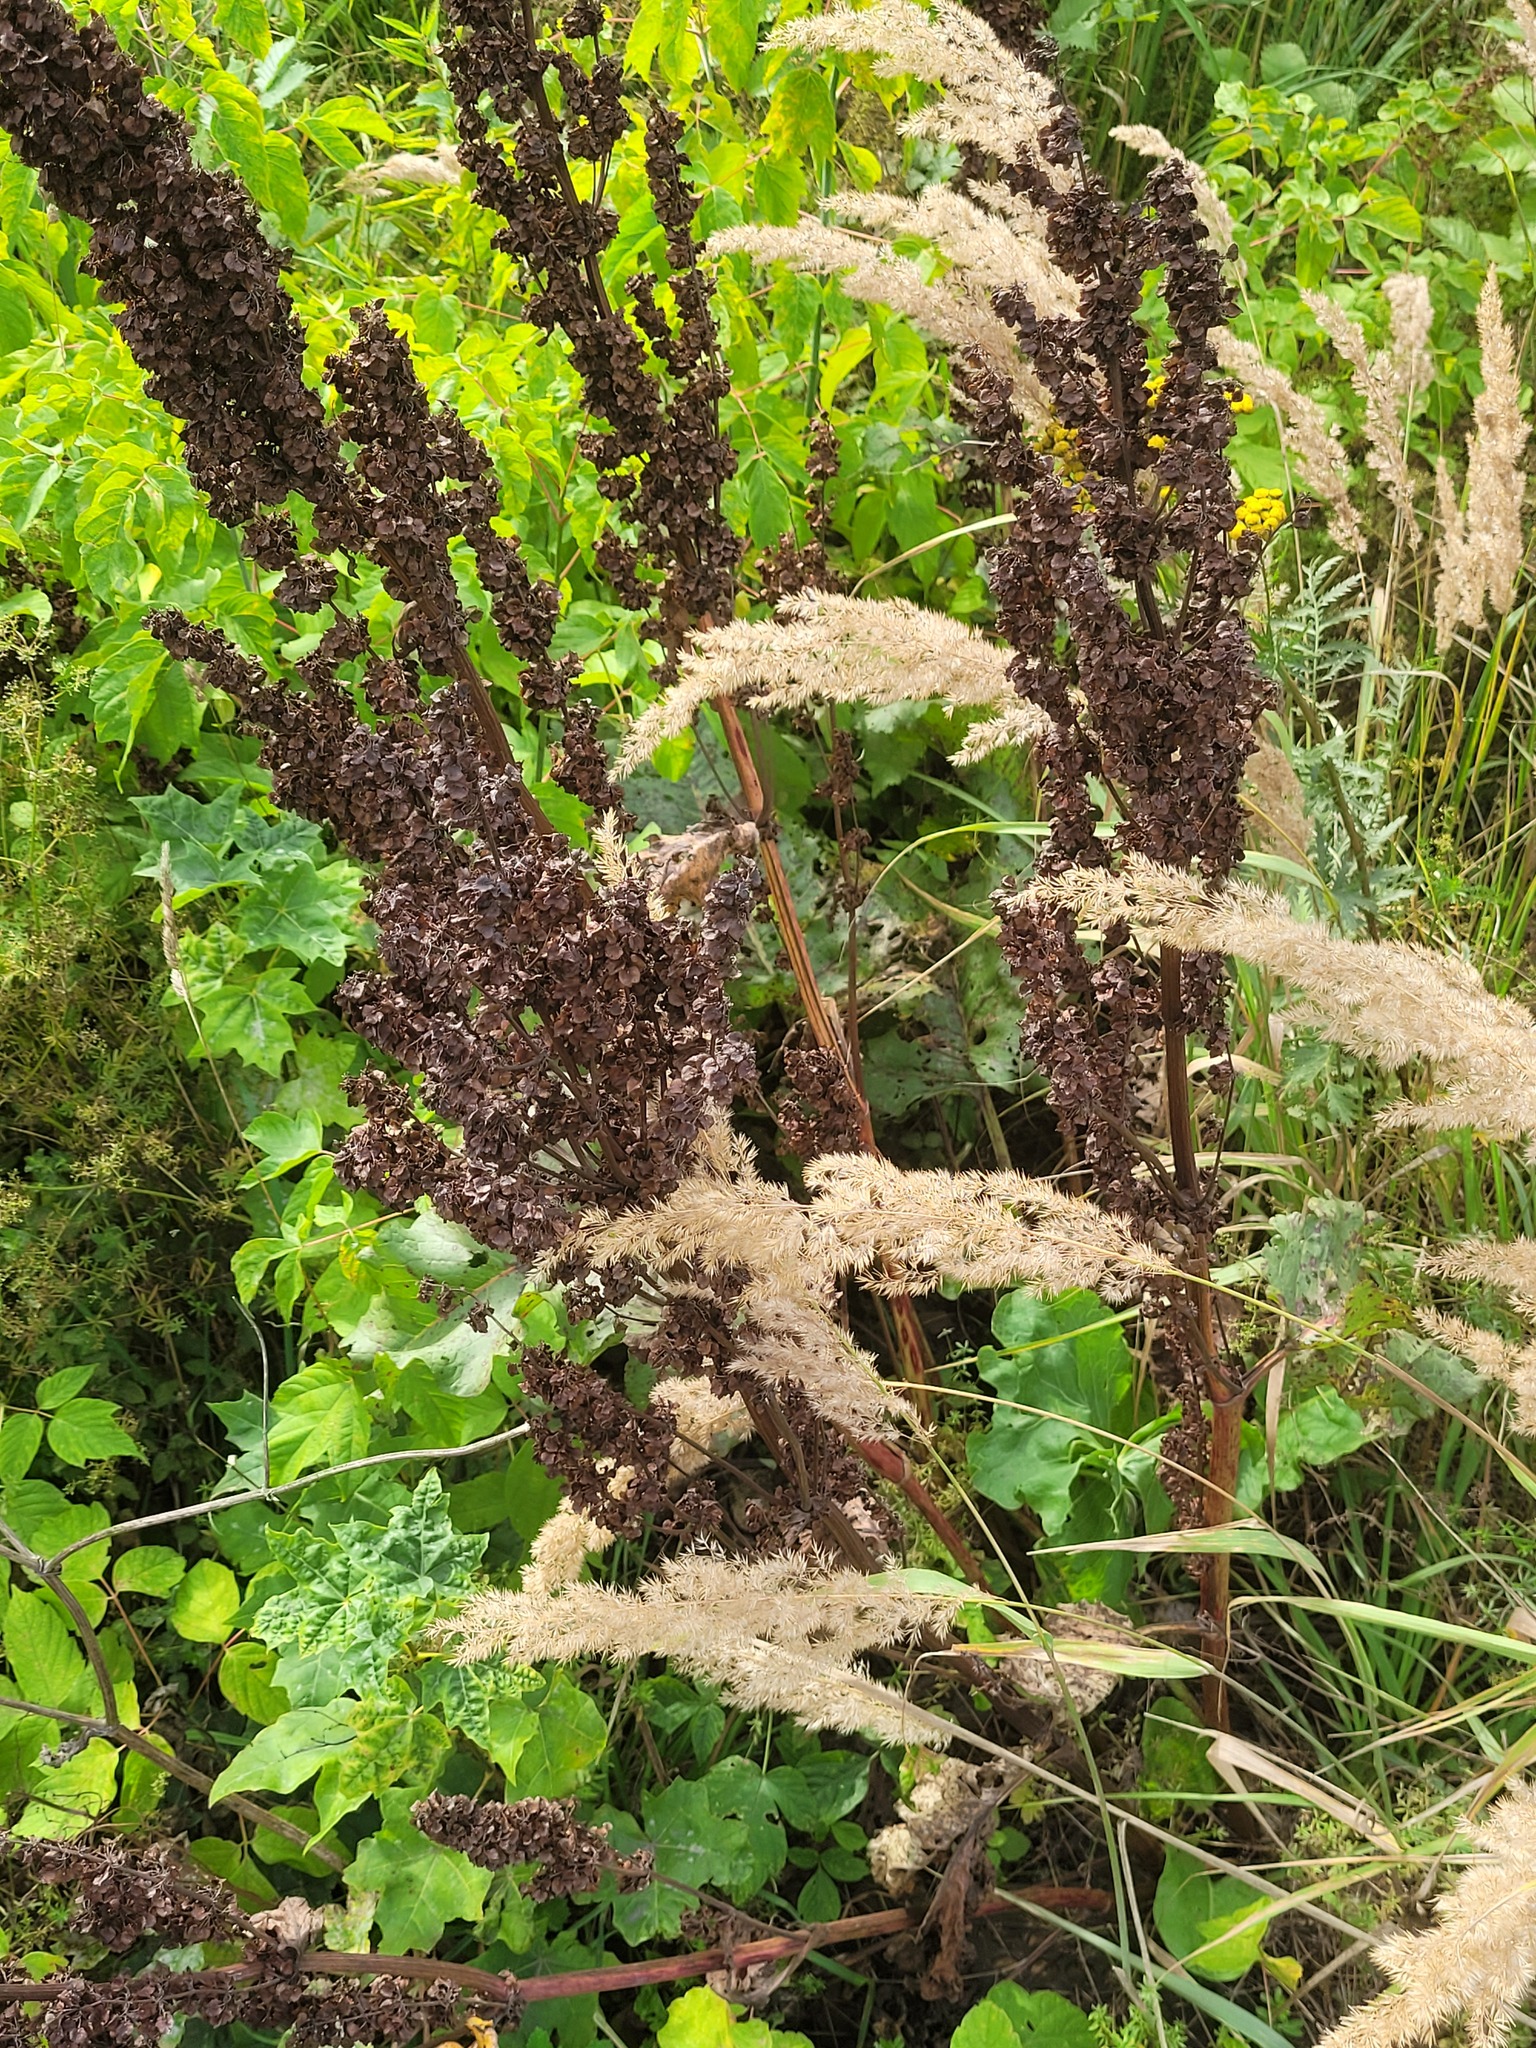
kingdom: Plantae
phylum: Tracheophyta
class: Magnoliopsida
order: Caryophyllales
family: Polygonaceae
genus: Rumex
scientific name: Rumex confertus
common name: Russian dock
